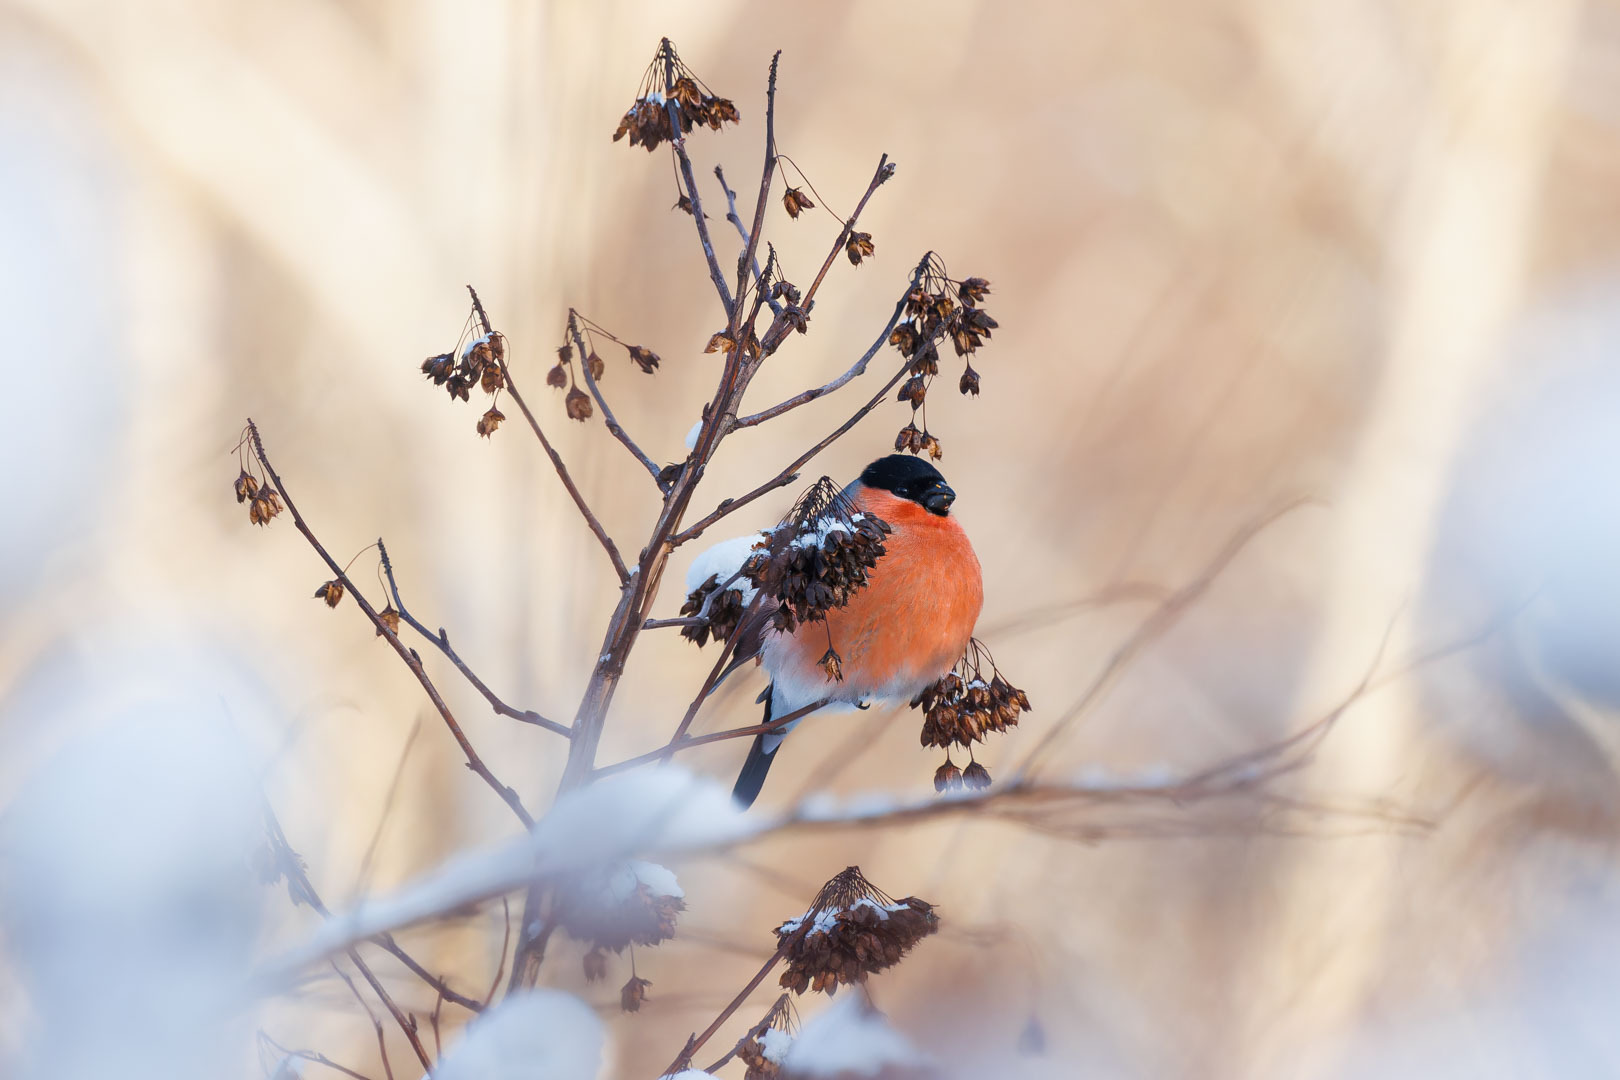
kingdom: Animalia
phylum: Chordata
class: Aves
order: Passeriformes
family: Fringillidae
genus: Pyrrhula
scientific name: Pyrrhula pyrrhula
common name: Eurasian bullfinch
